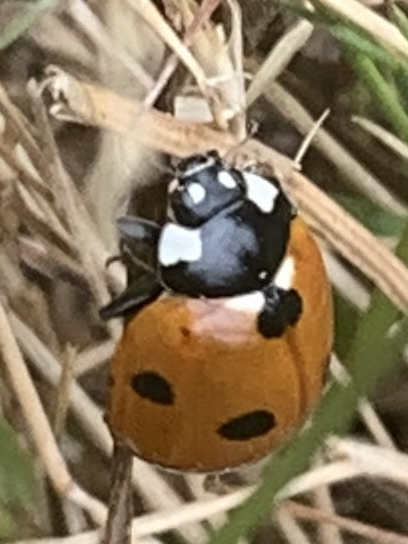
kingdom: Animalia
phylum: Arthropoda
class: Insecta
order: Coleoptera
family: Coccinellidae
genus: Coccinella
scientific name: Coccinella septempunctata
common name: Sevenspotted lady beetle
